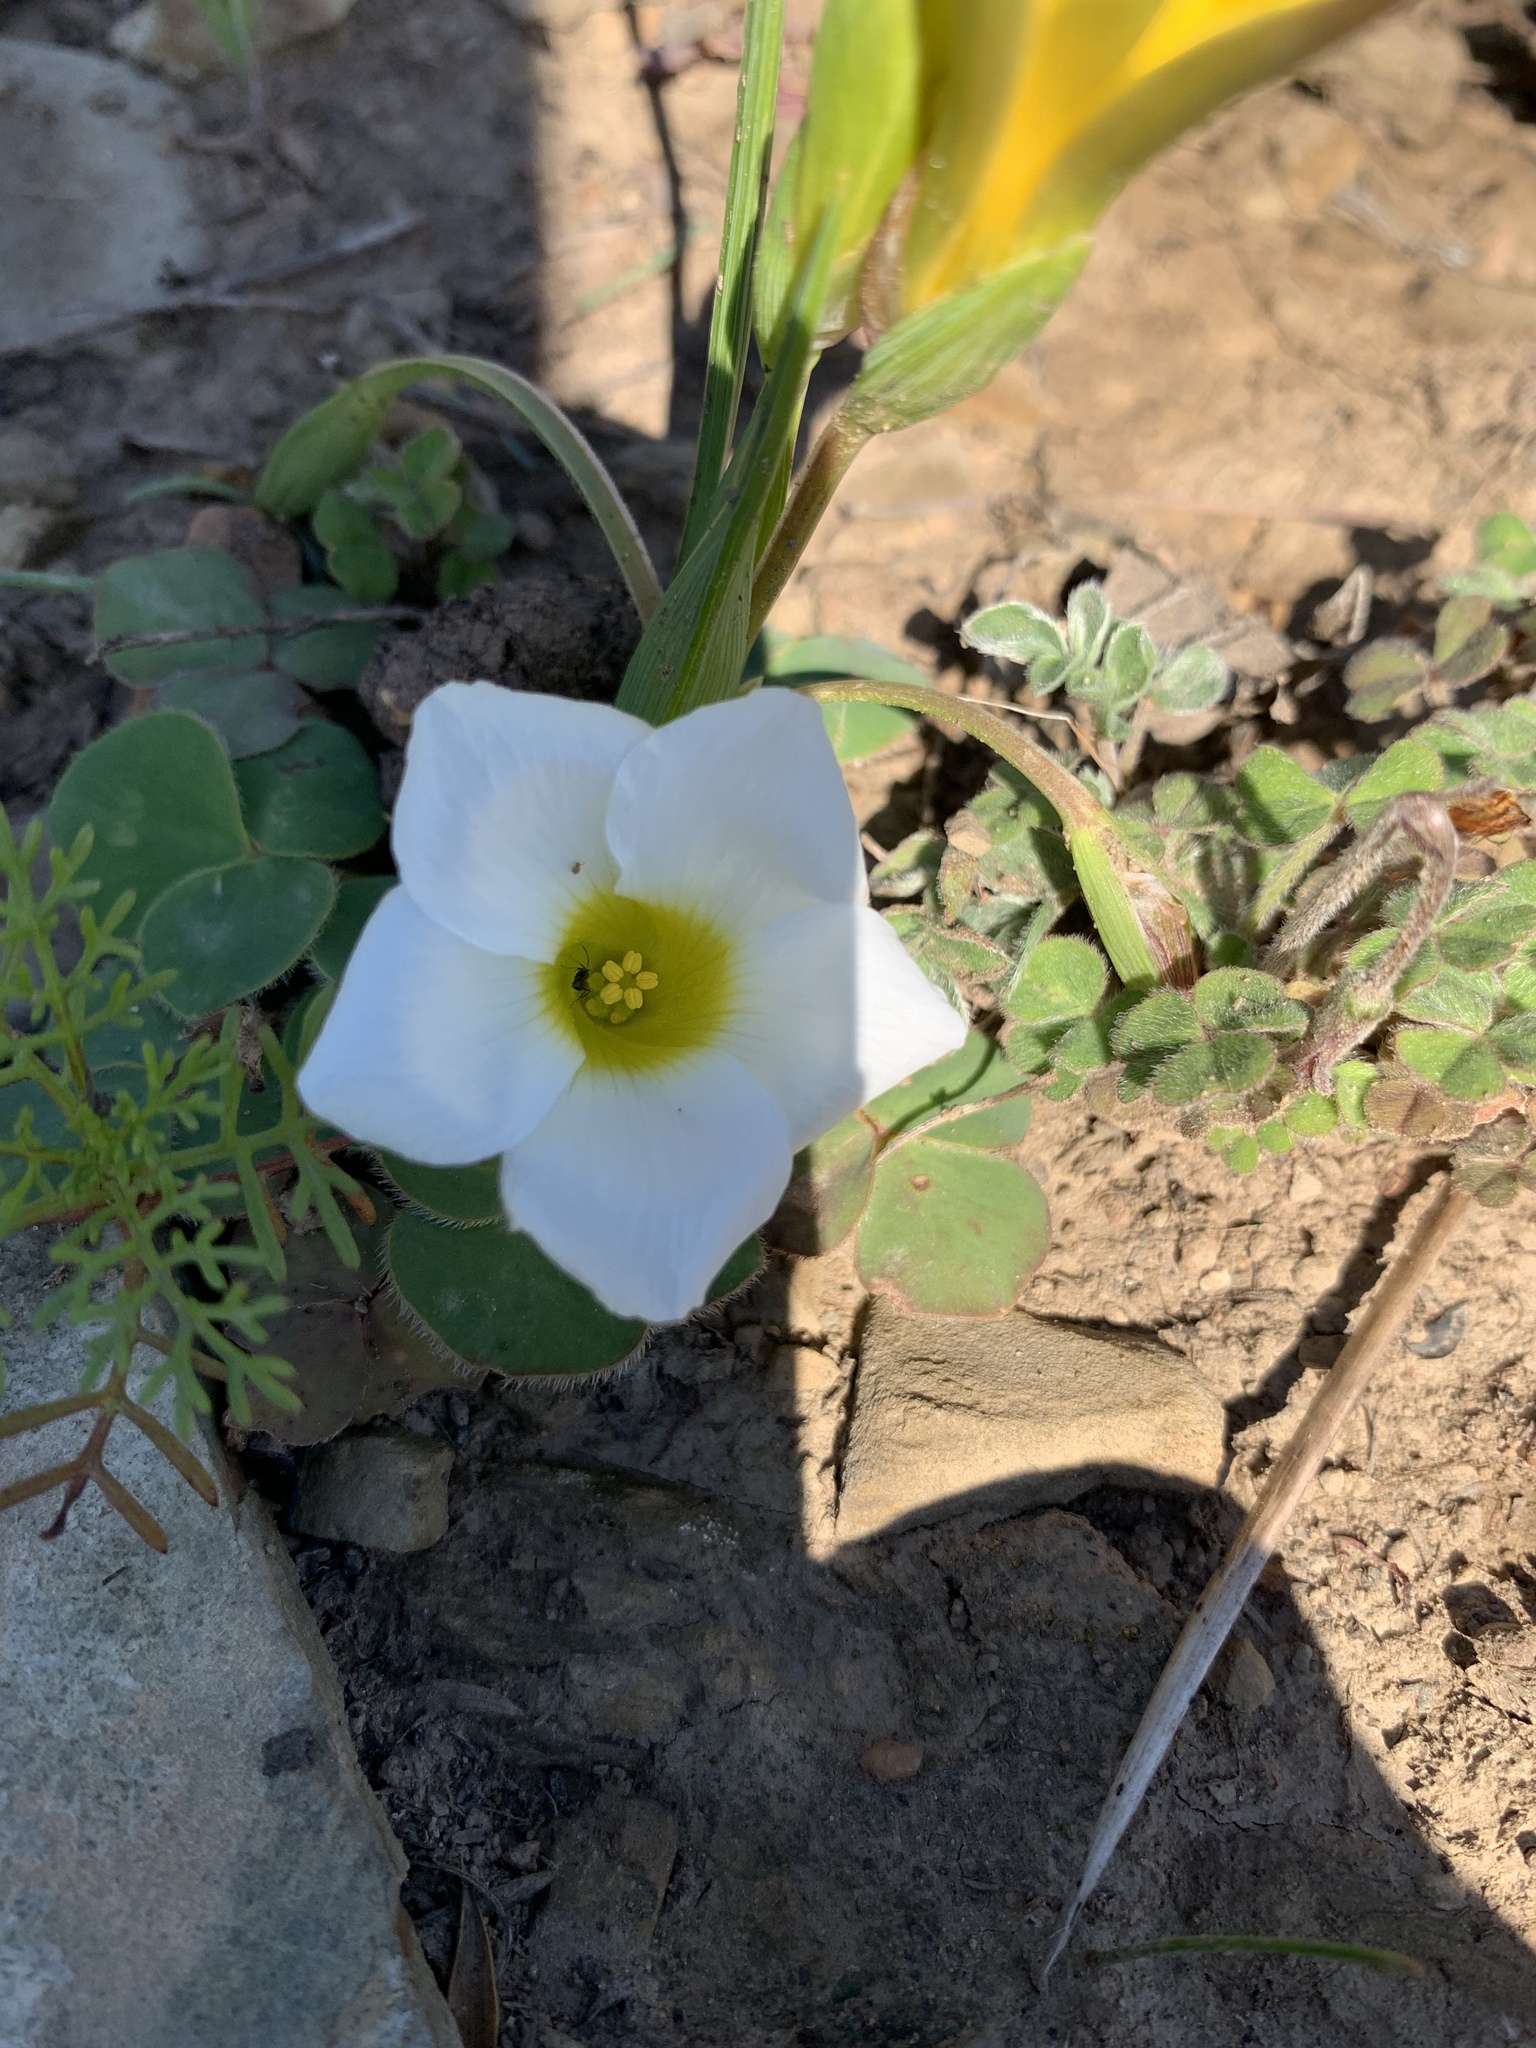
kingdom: Plantae
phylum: Tracheophyta
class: Magnoliopsida
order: Oxalidales
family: Oxalidaceae
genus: Oxalis
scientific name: Oxalis purpurea
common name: Purple woodsorrel
